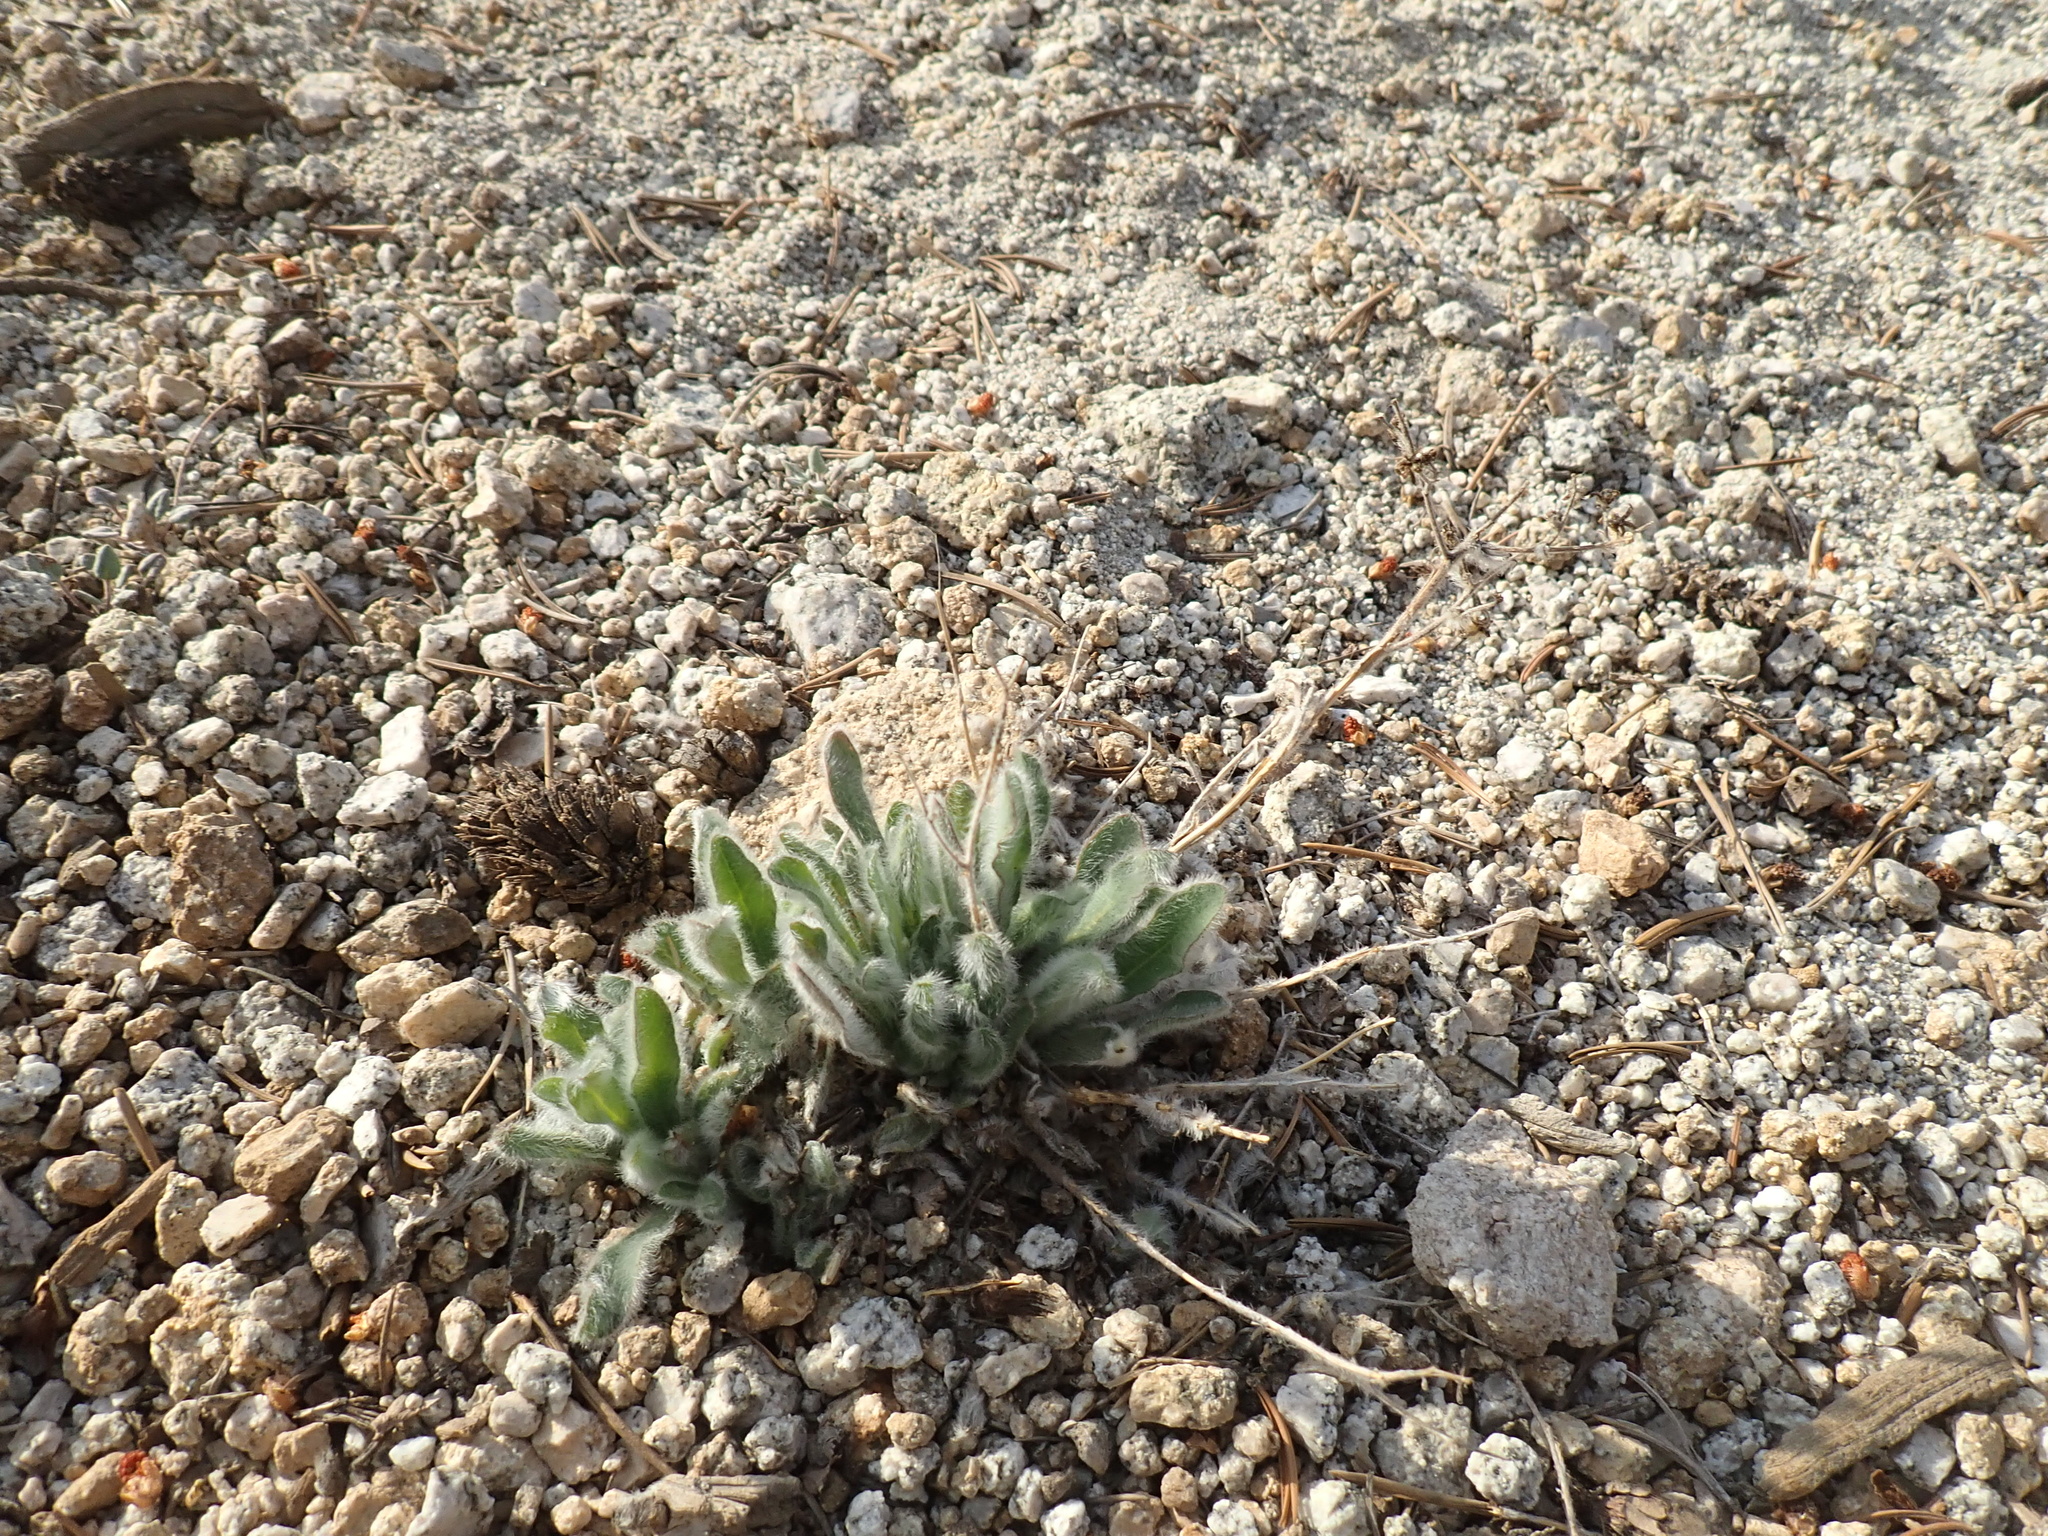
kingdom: Plantae
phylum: Tracheophyta
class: Magnoliopsida
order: Asterales
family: Asteraceae
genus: Hieracium
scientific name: Hieracium horridum
